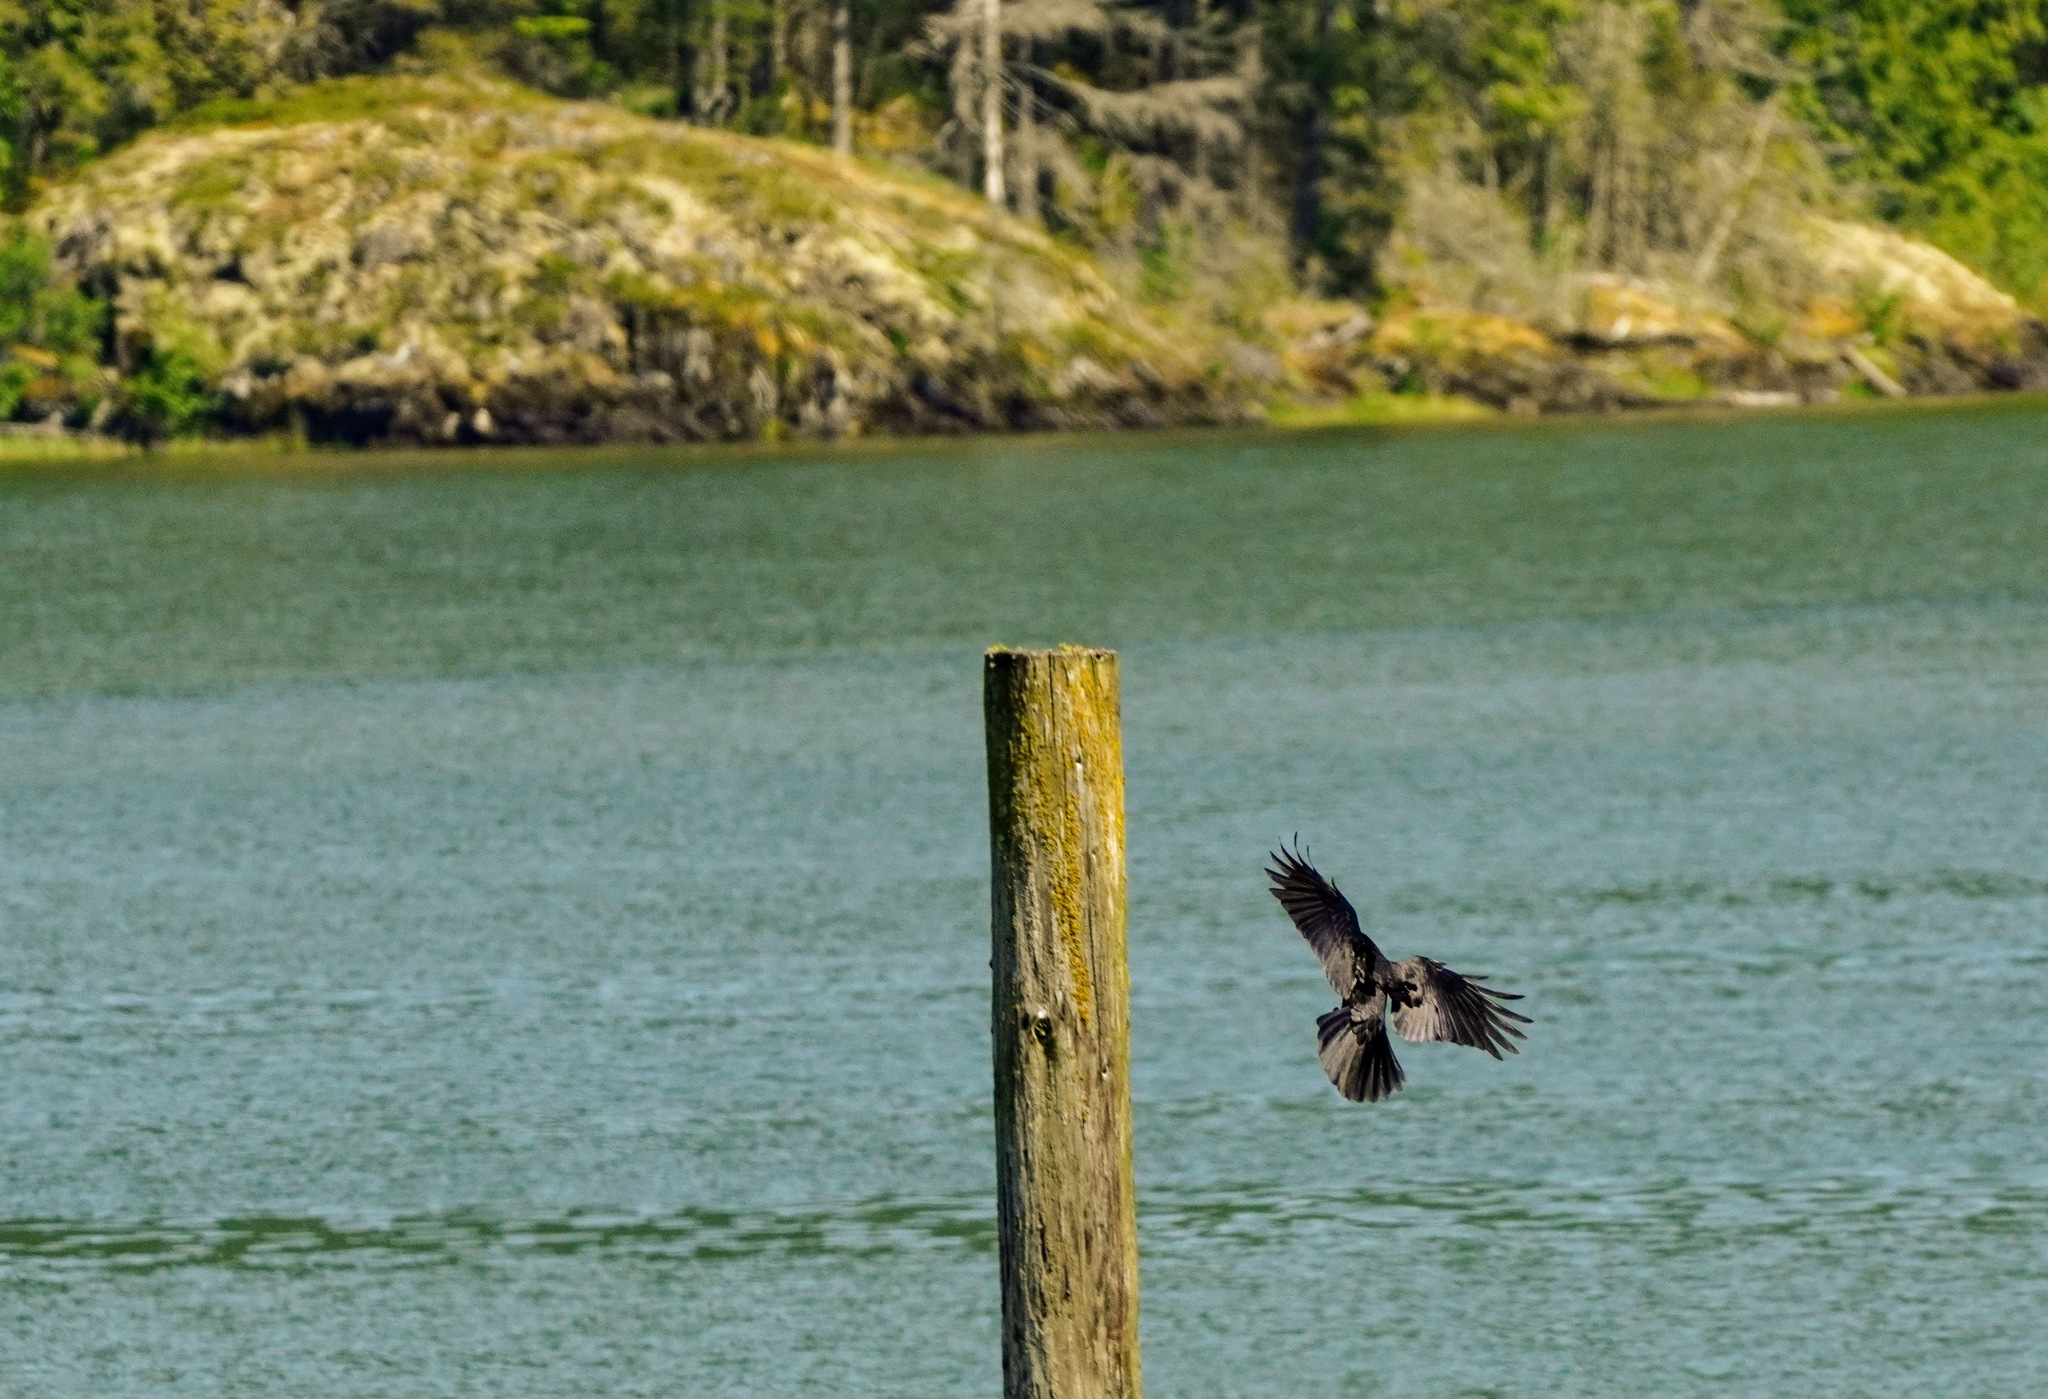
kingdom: Animalia
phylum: Chordata
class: Aves
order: Passeriformes
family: Corvidae
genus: Corvus
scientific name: Corvus brachyrhynchos
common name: American crow
